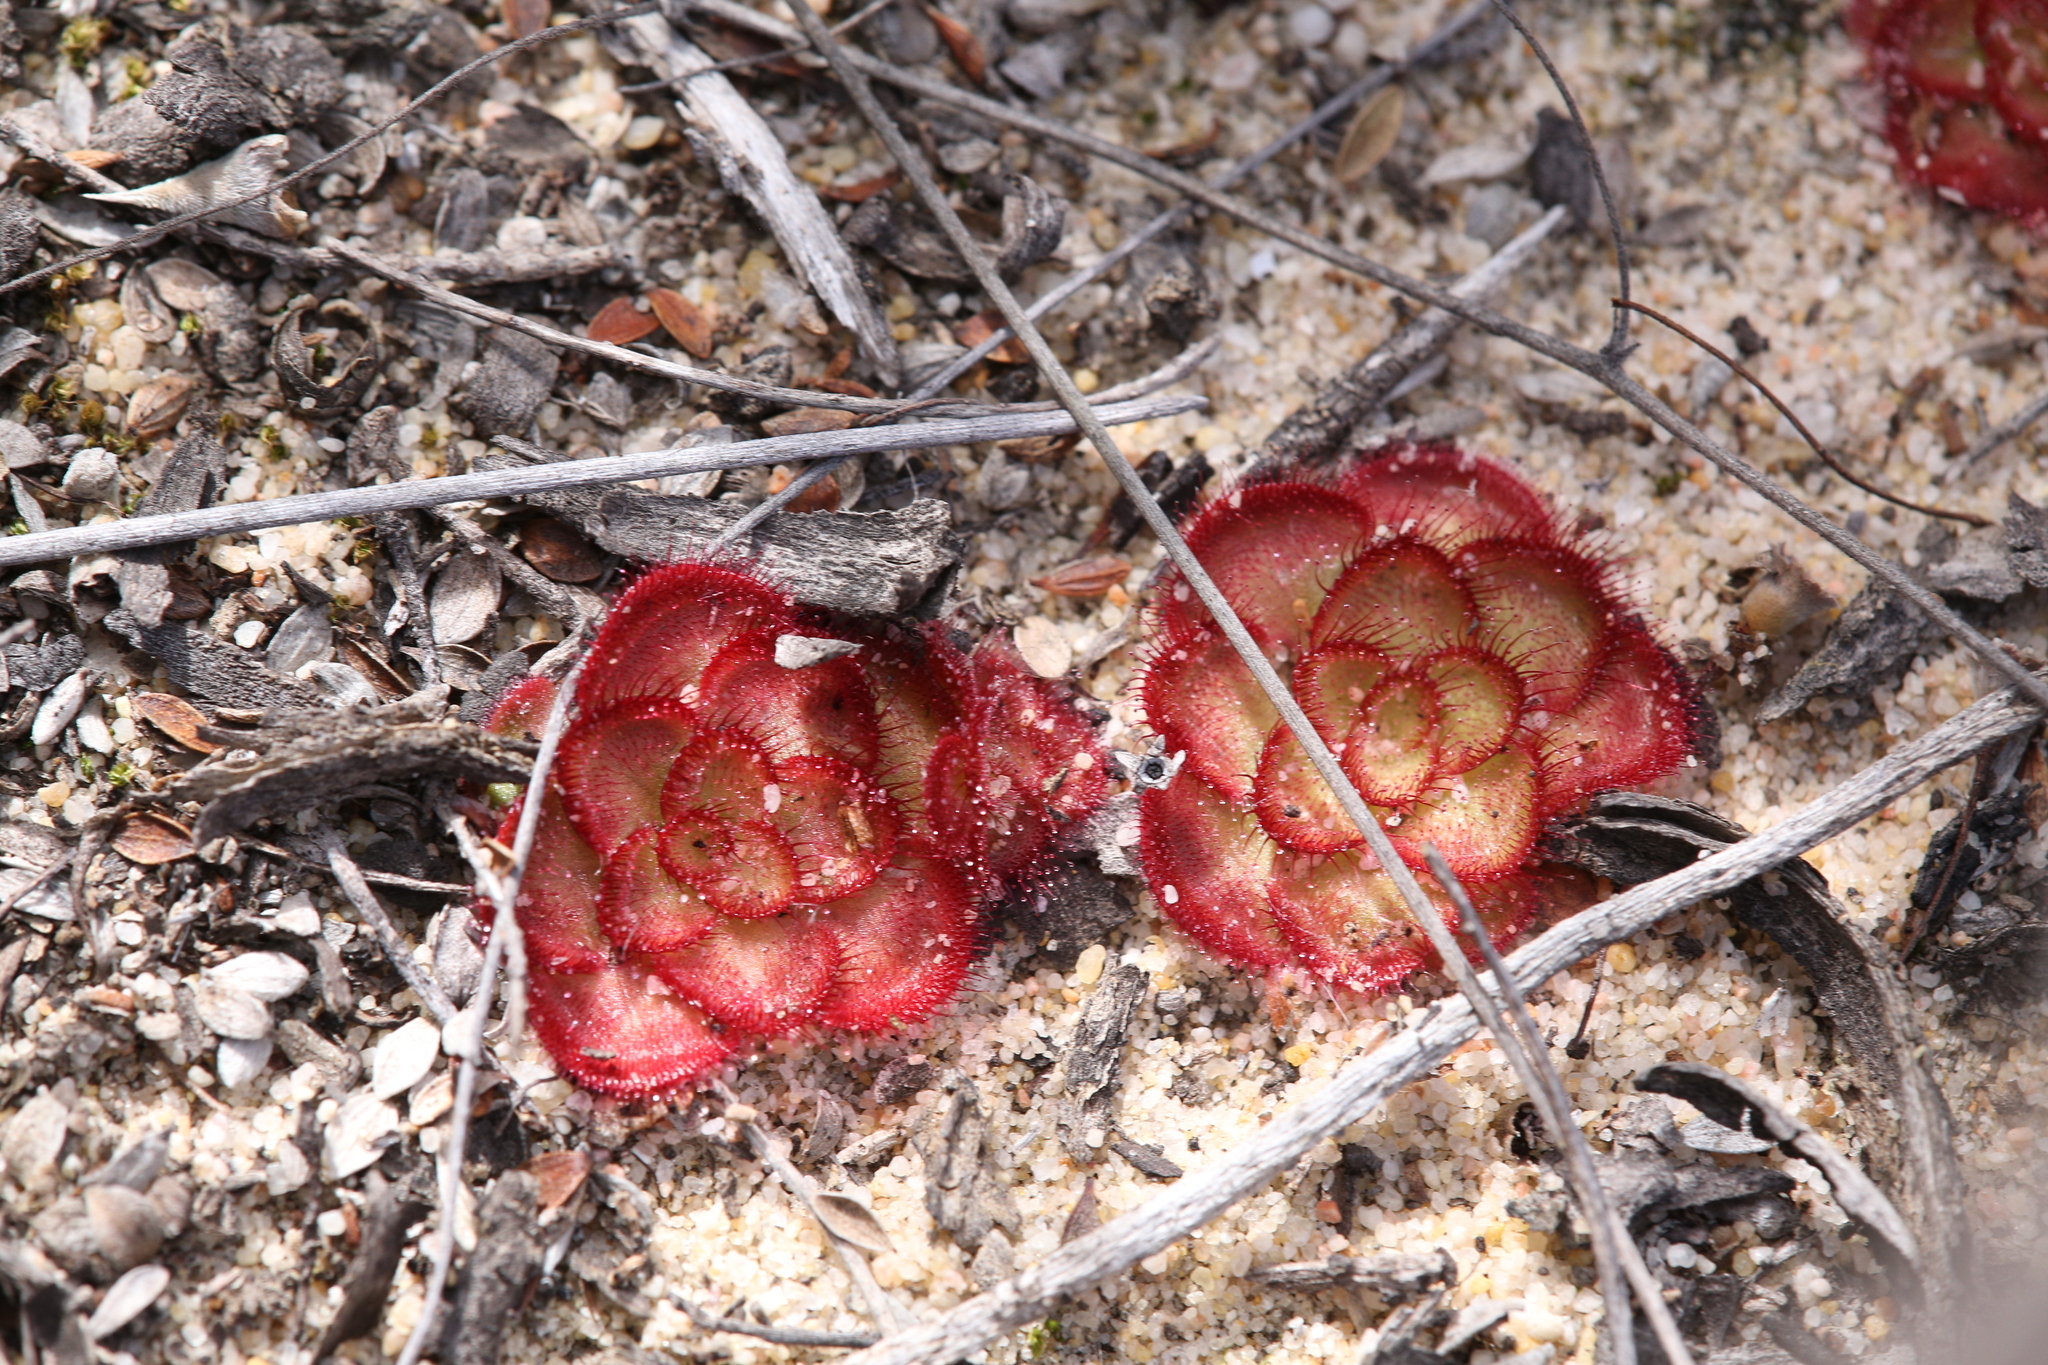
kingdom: Plantae
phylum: Tracheophyta
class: Magnoliopsida
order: Caryophyllales
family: Droseraceae
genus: Drosera
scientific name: Drosera zonaria
